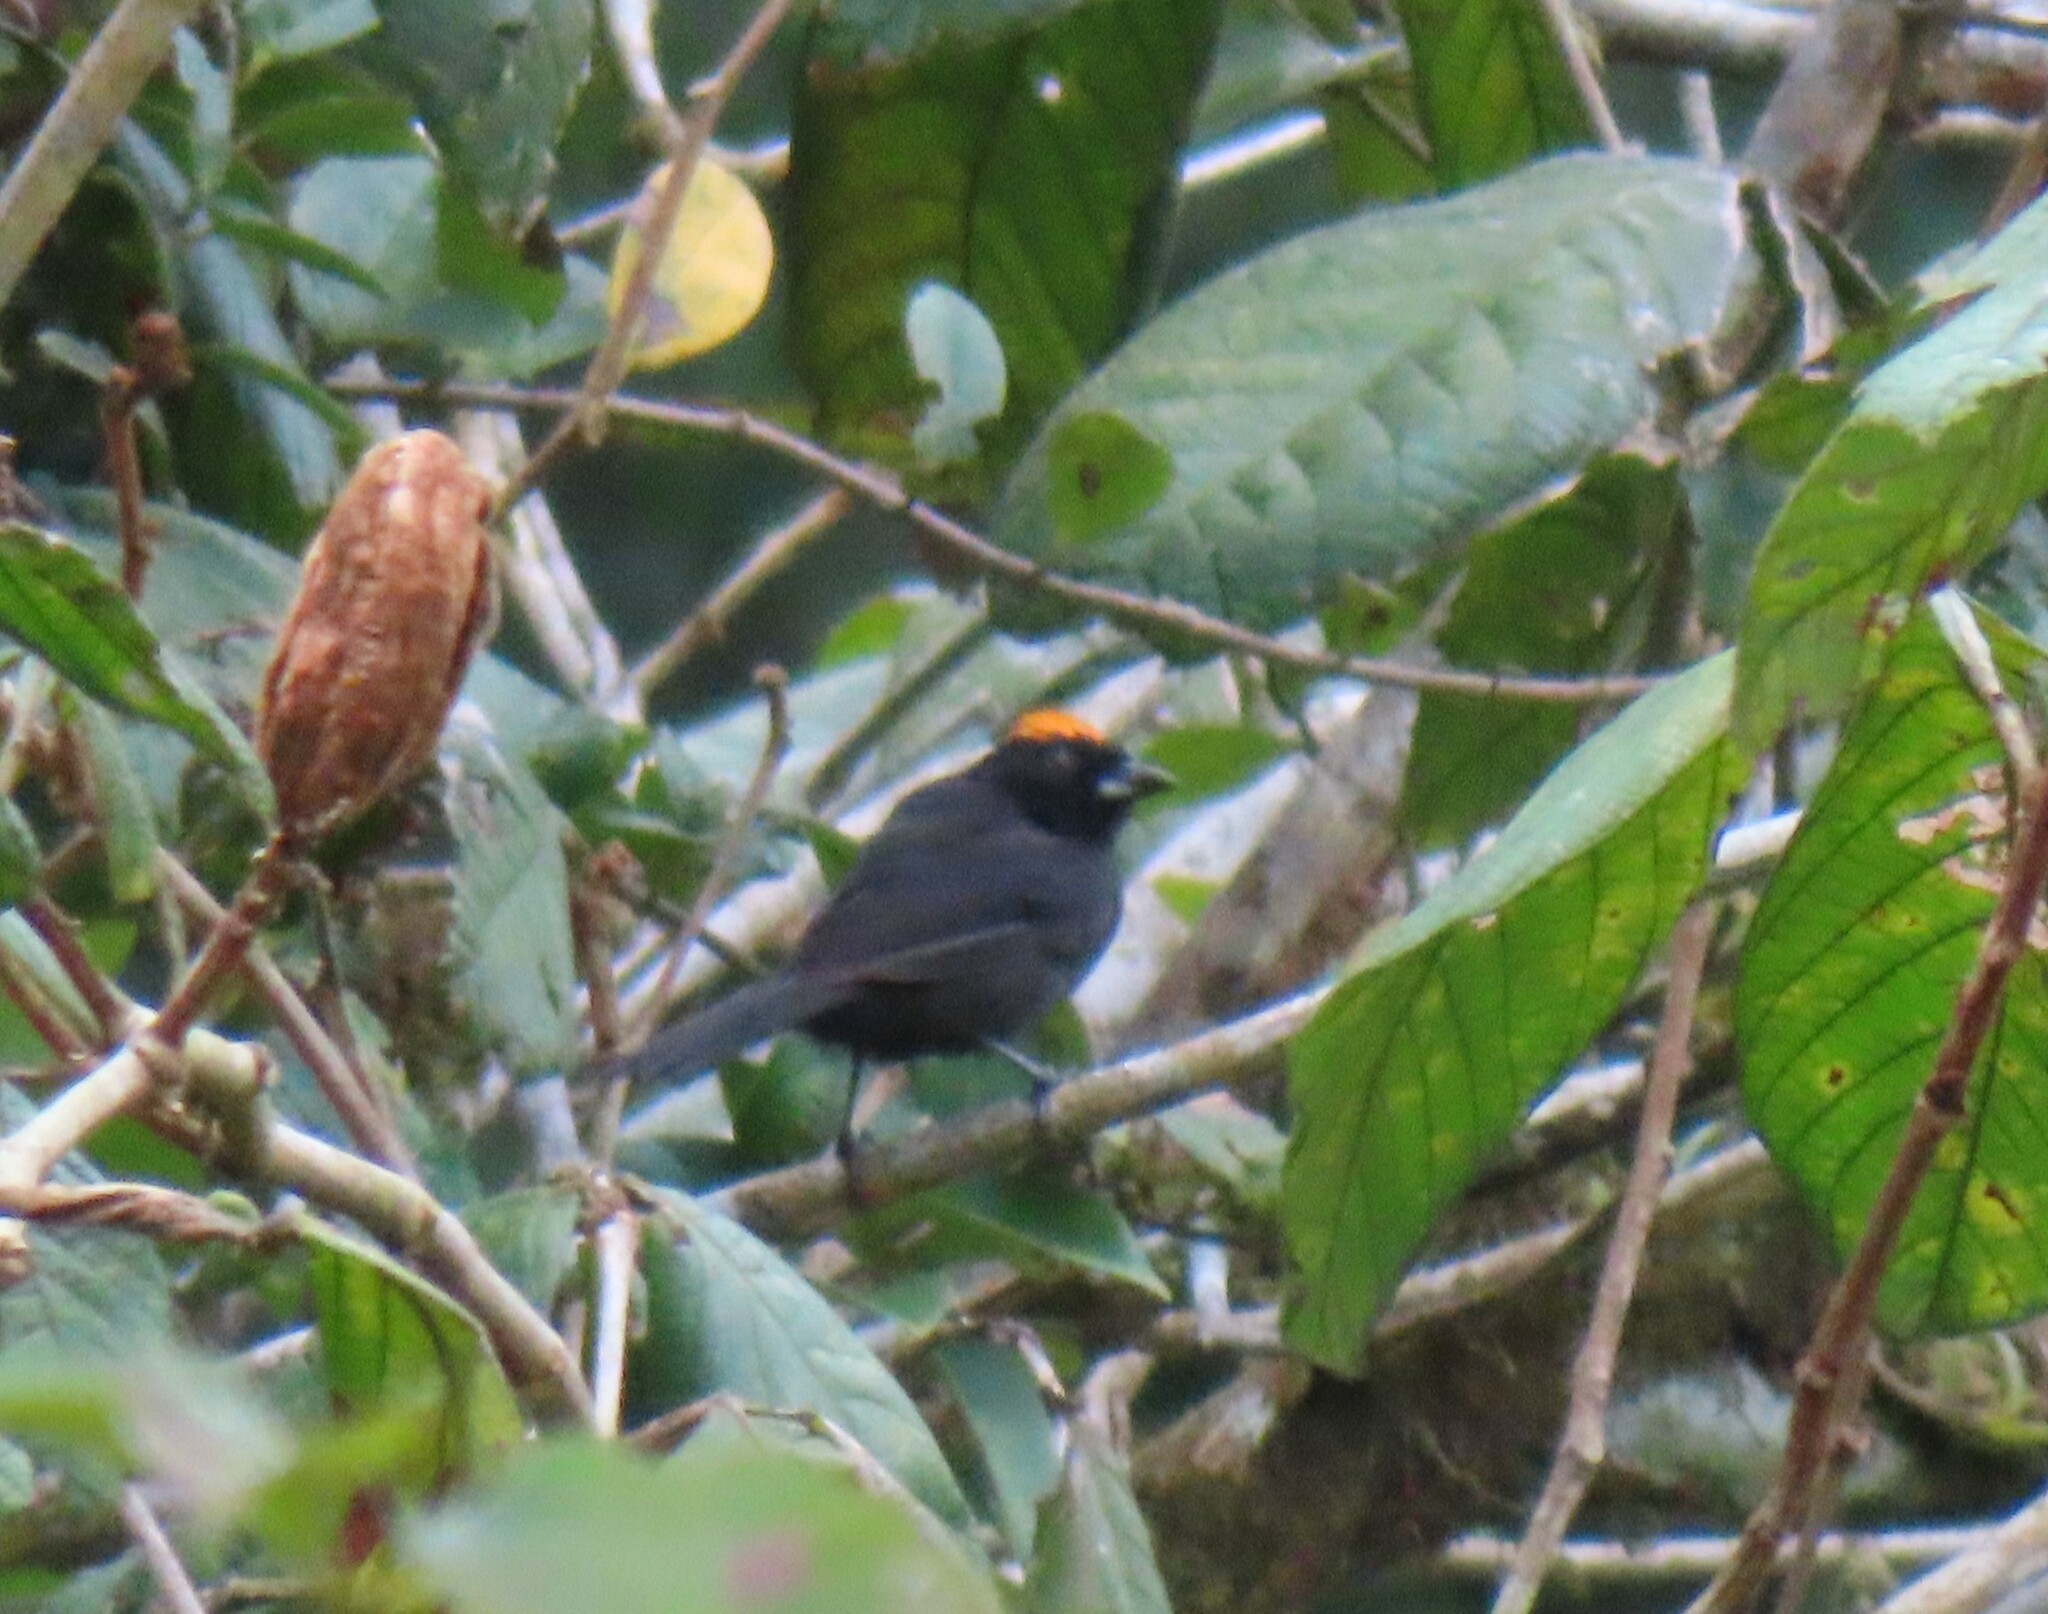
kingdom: Animalia
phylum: Chordata
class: Aves
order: Passeriformes
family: Thraupidae
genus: Tachyphonus
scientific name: Tachyphonus delatrii
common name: Tawny-crested tanager
